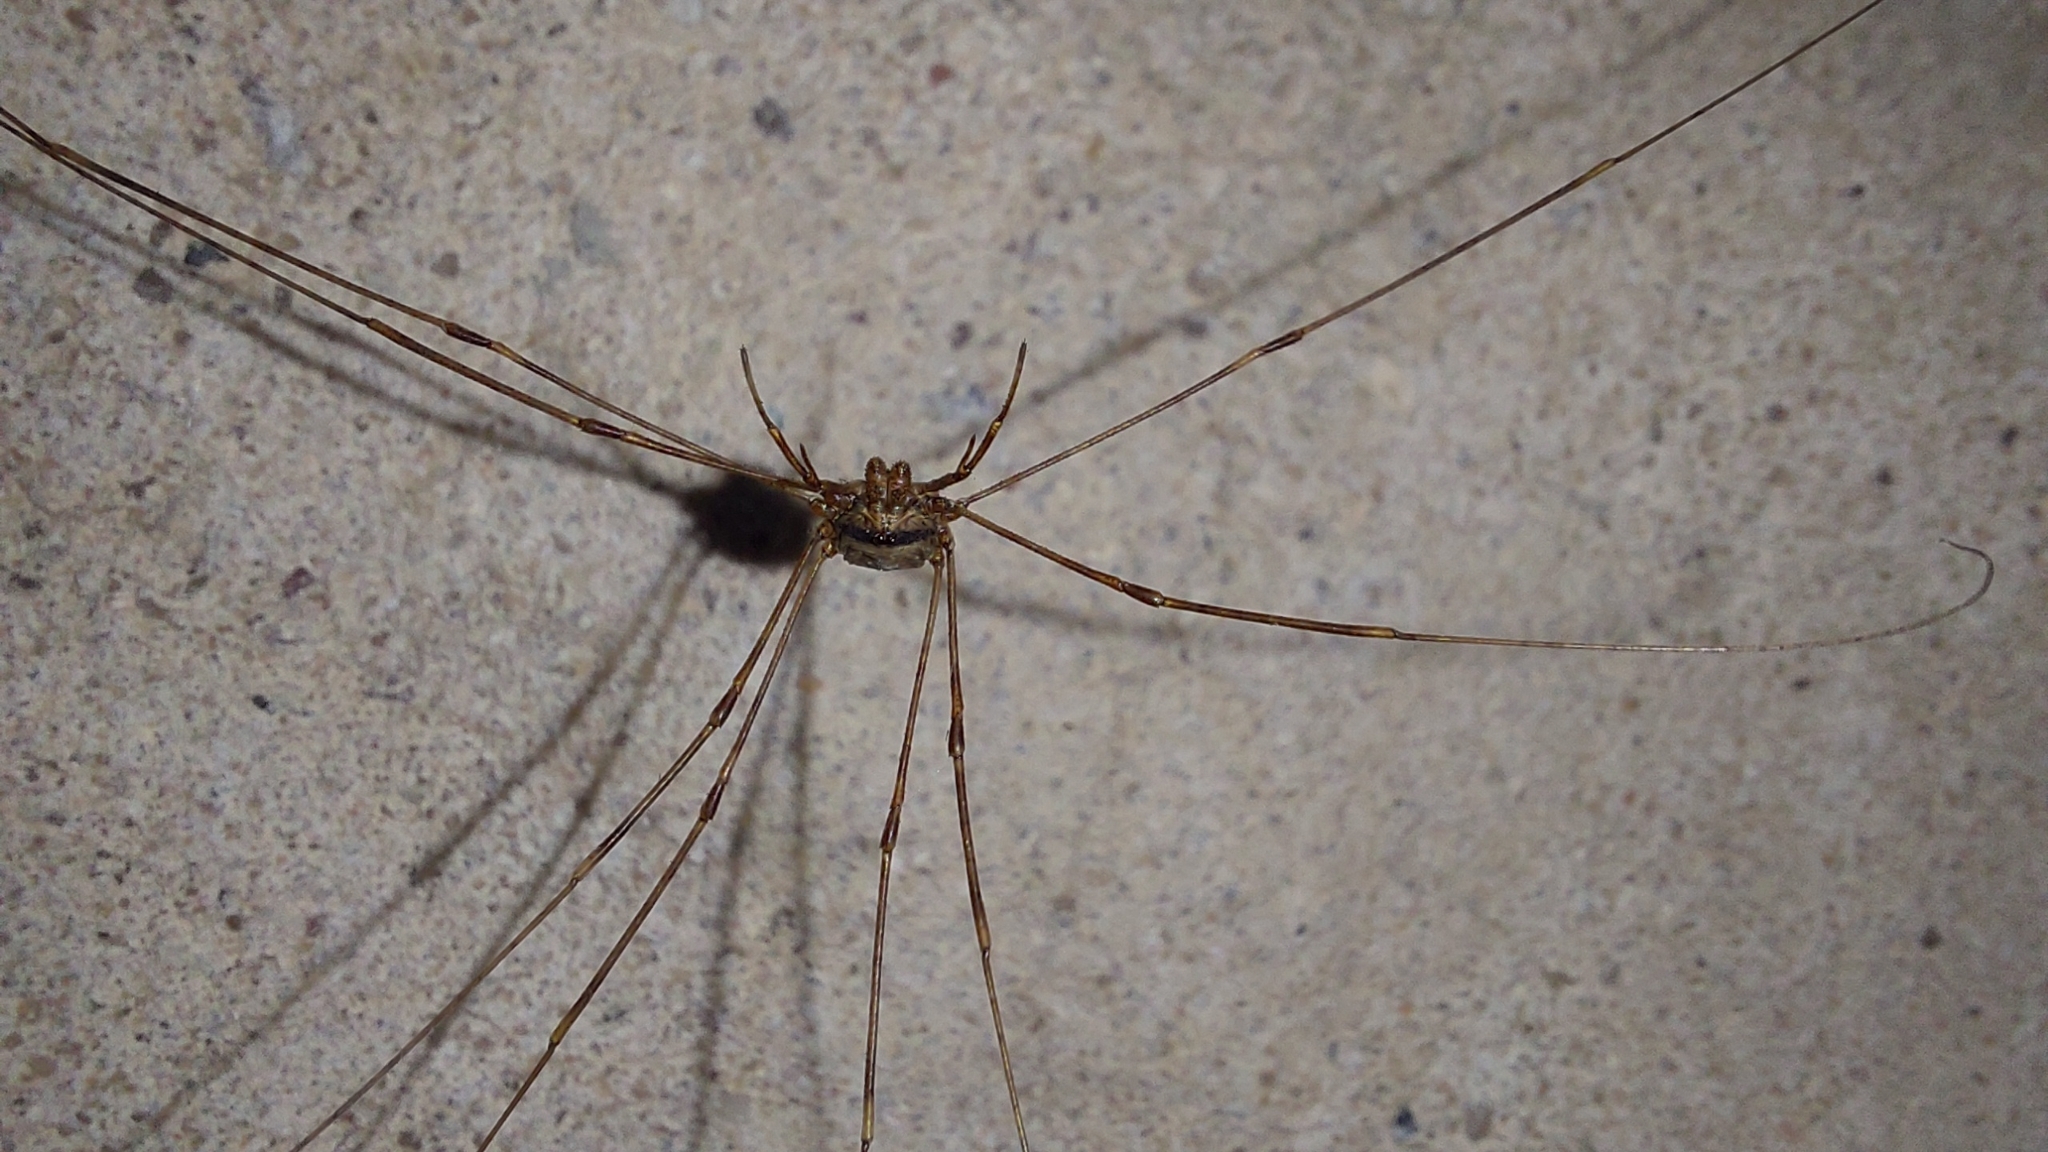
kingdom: Animalia
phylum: Arthropoda
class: Arachnida
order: Opiliones
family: Phalangiidae
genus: Dicranopalpus
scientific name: Dicranopalpus ramosus
